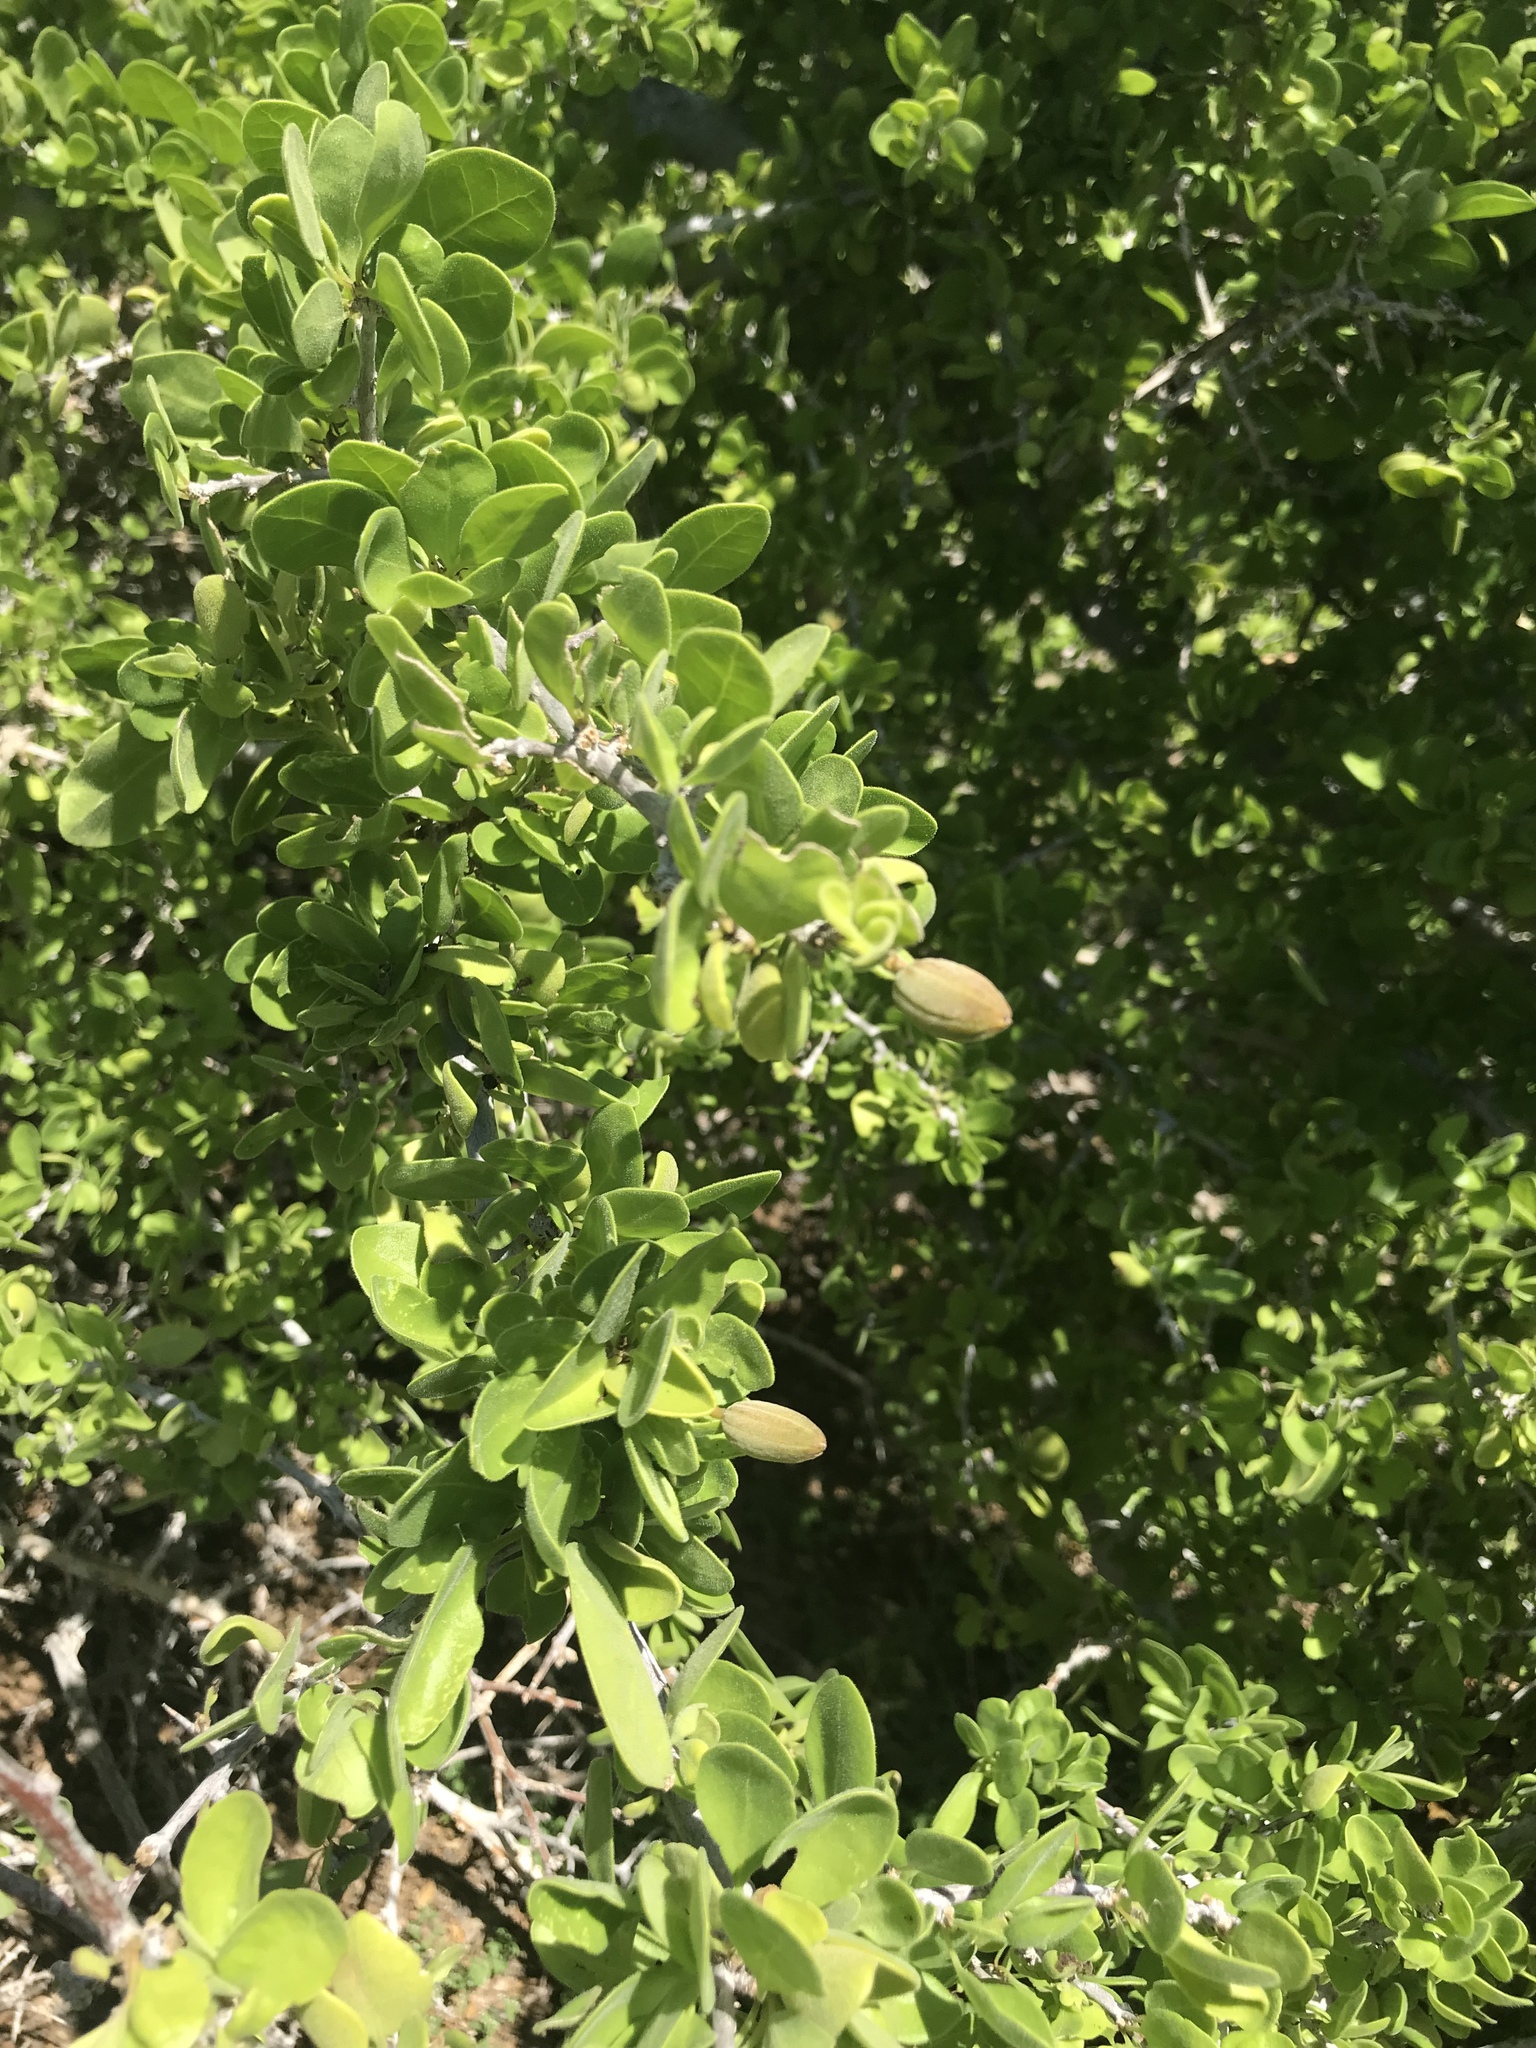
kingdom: Plantae
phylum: Tracheophyta
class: Magnoliopsida
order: Caryophyllales
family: Nyctaginaceae
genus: Pisonia
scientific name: Pisonia calafia
